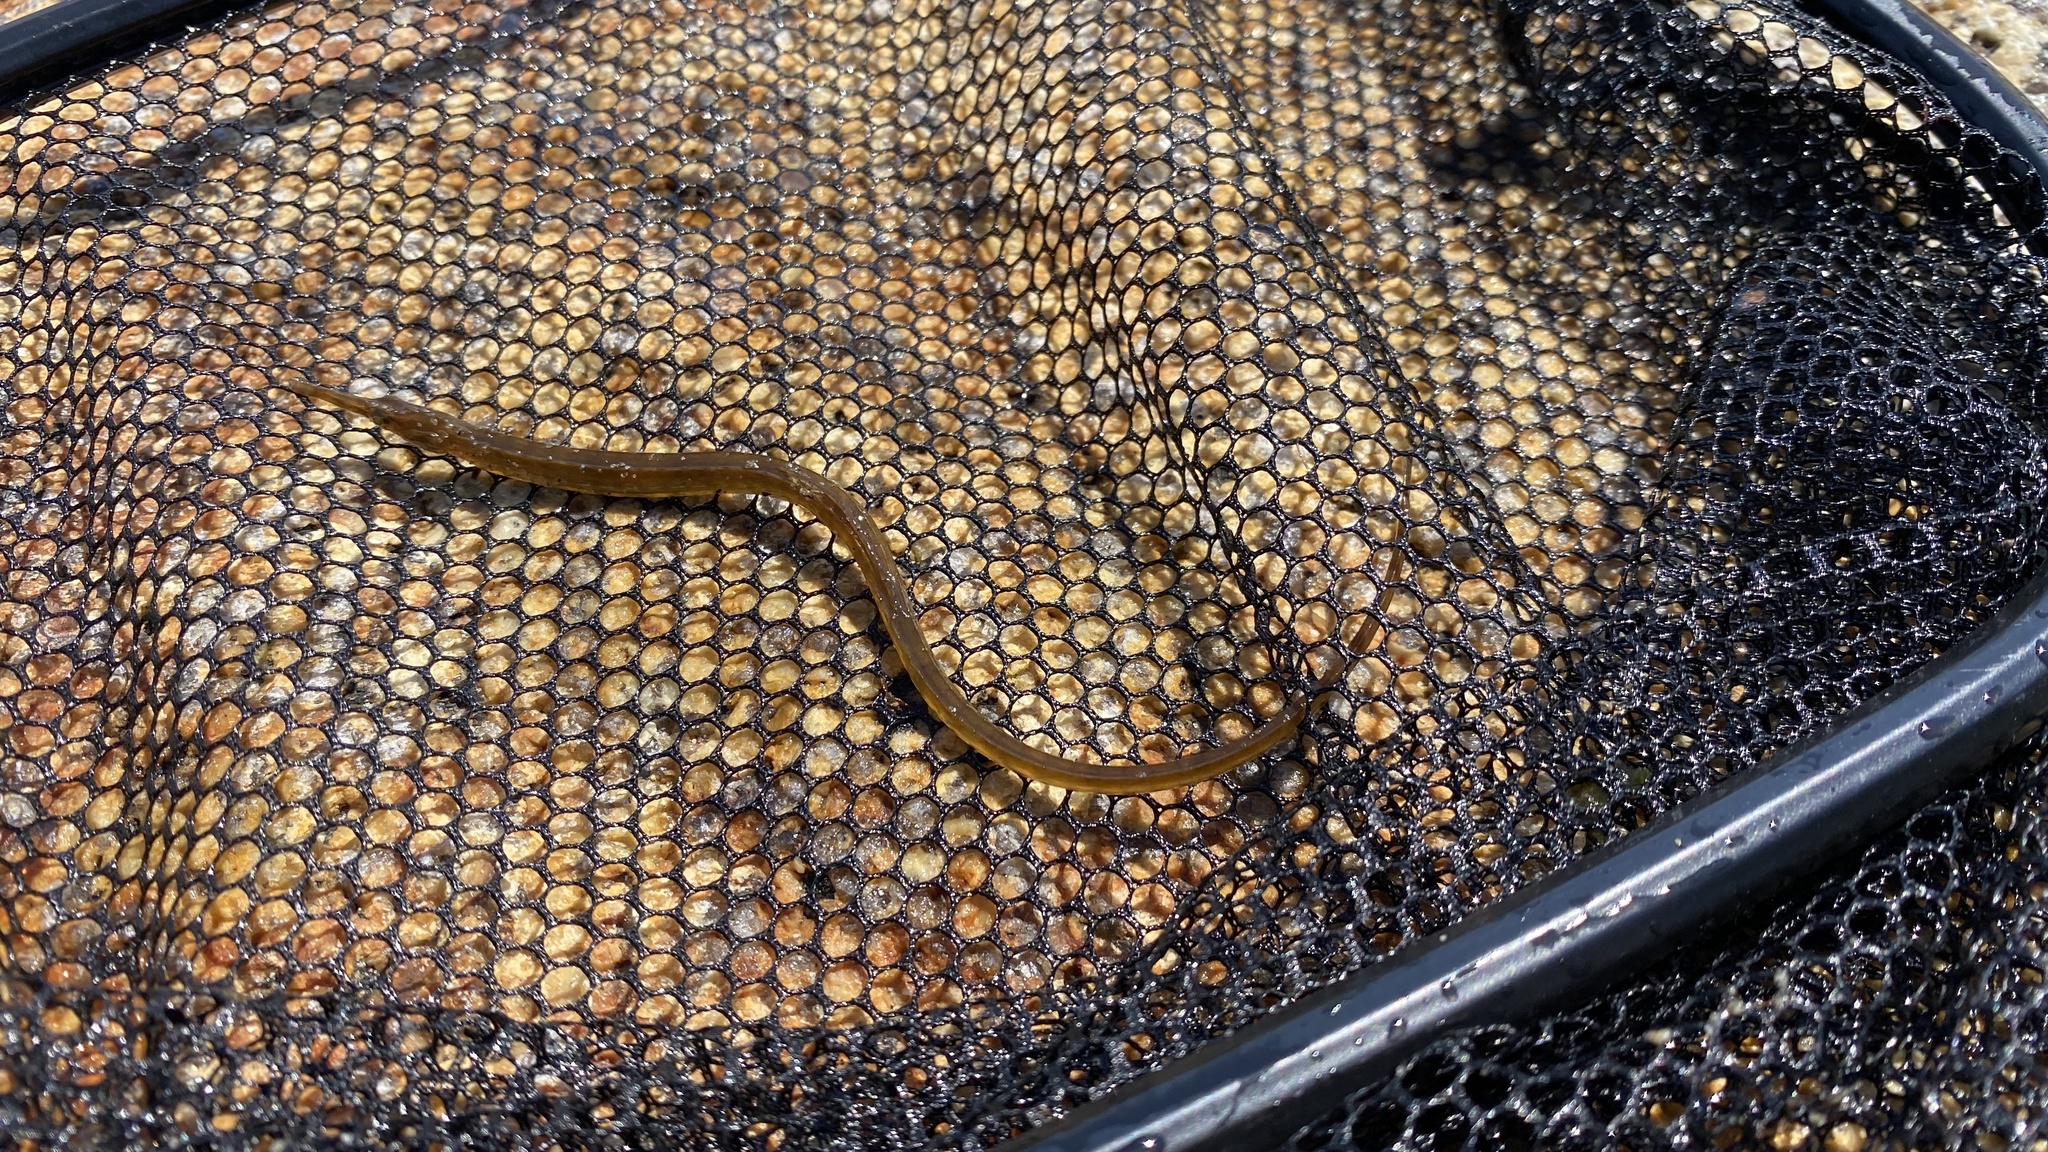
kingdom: Animalia
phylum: Chordata
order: Syngnathiformes
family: Syngnathidae
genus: Syngnathus
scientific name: Syngnathus fuscus
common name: Northern pipefish
